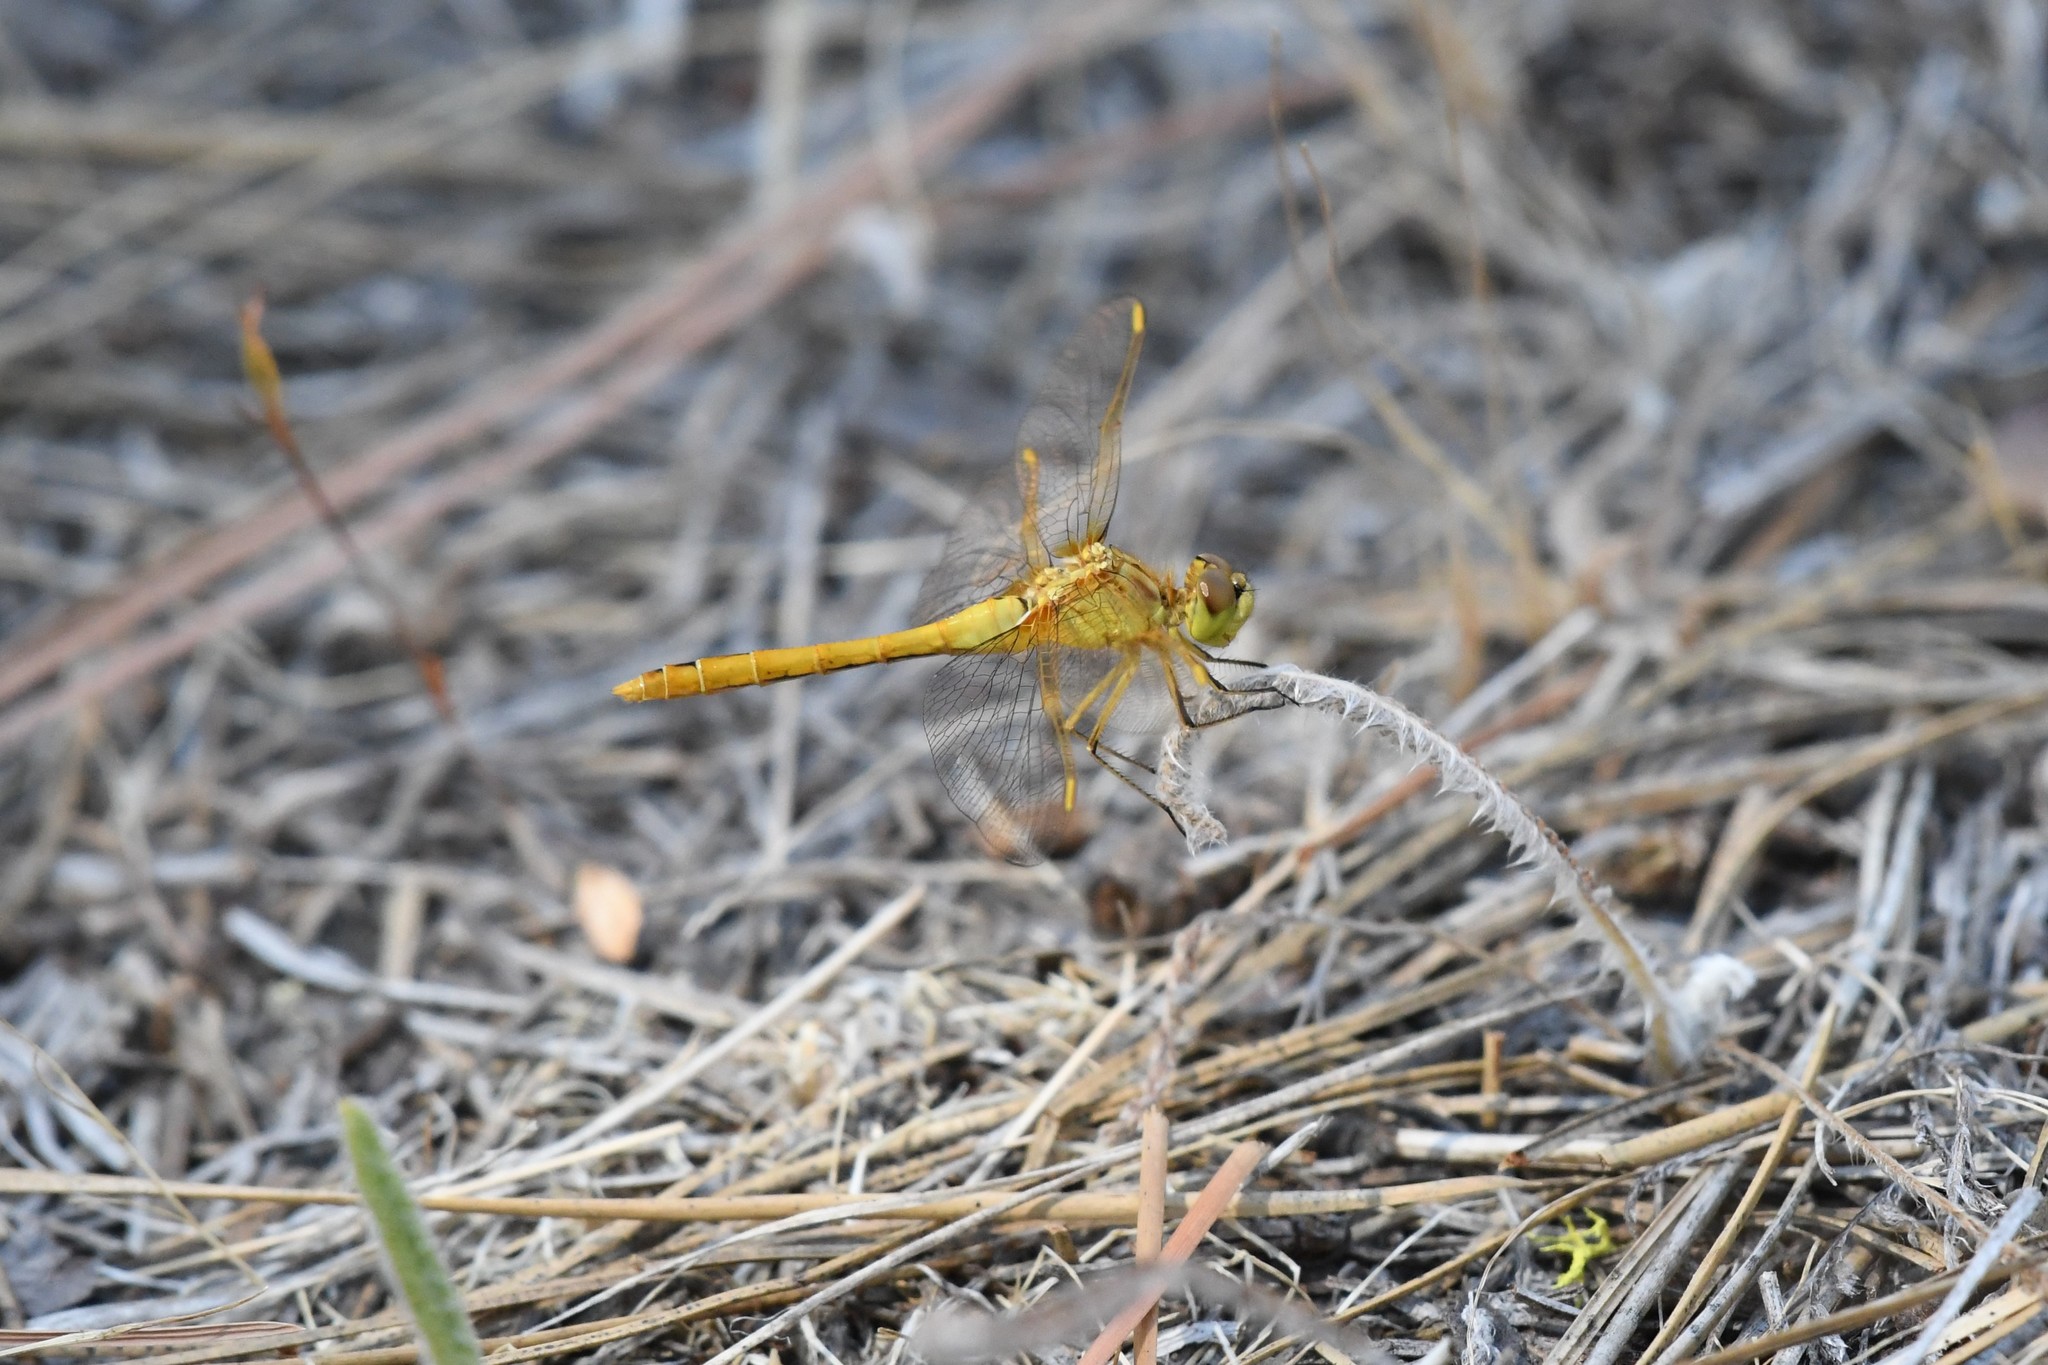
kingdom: Animalia
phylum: Arthropoda
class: Insecta
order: Odonata
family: Libellulidae
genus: Sympetrum
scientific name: Sympetrum costiferum
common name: Saffron-winged meadowhawk
